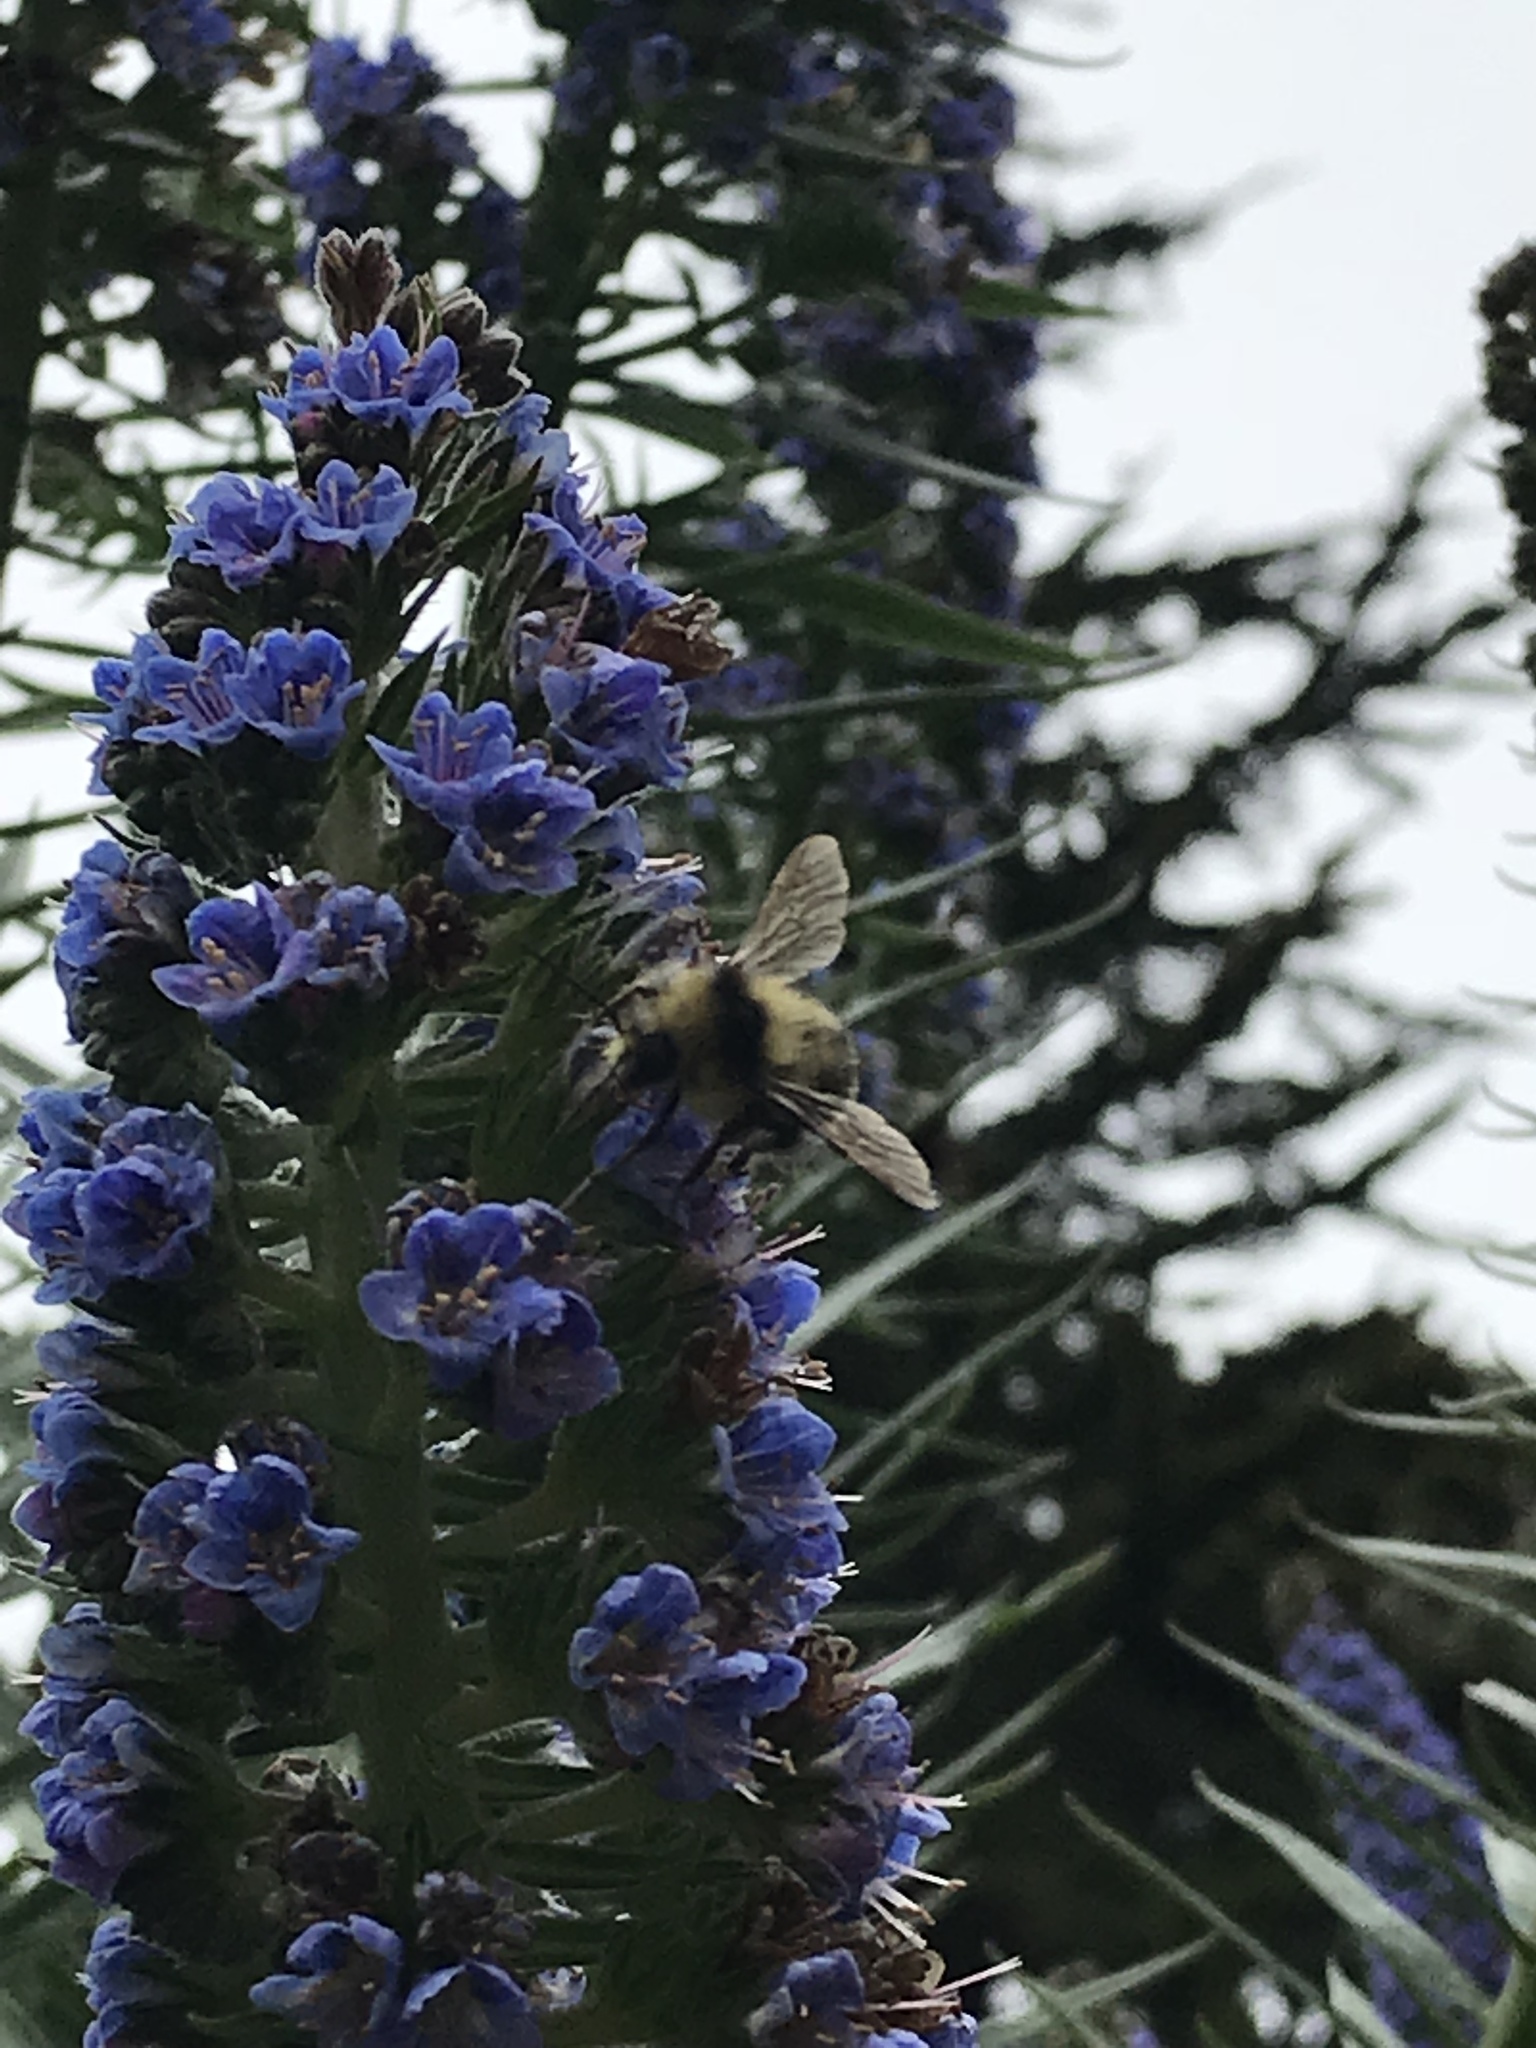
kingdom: Animalia
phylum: Arthropoda
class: Insecta
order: Hymenoptera
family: Apidae
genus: Bombus
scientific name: Bombus melanopygus
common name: Black tail bumble bee
